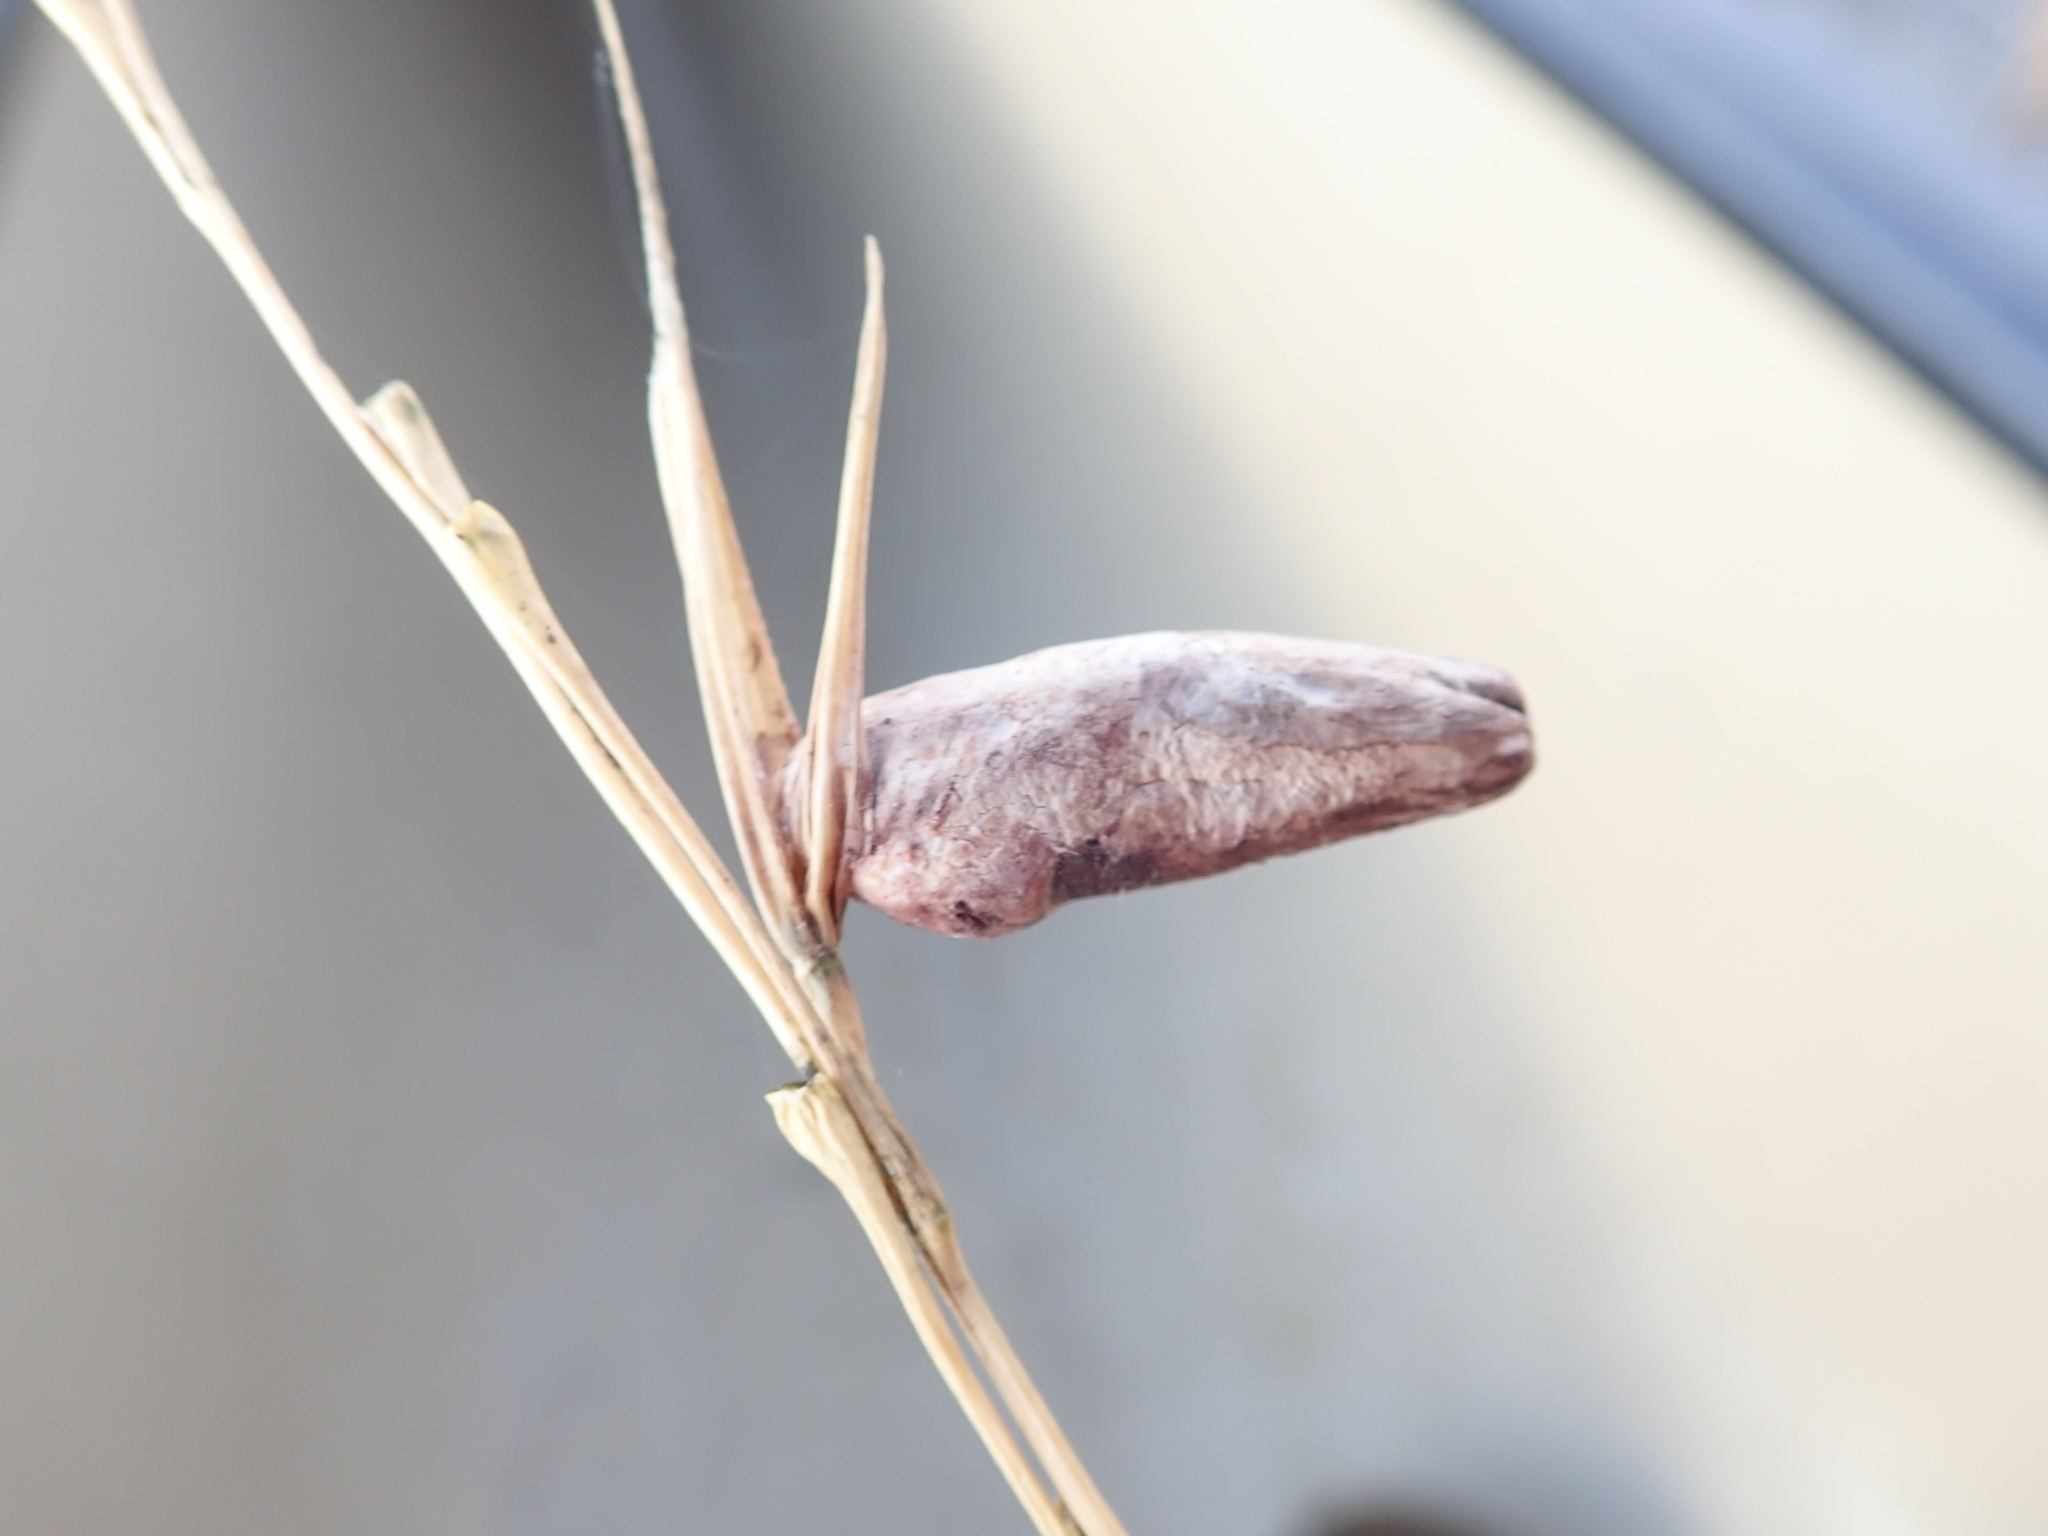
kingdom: Fungi
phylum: Ascomycota
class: Sordariomycetes
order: Hypocreales
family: Clavicipitaceae
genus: Claviceps
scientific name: Claviceps zizaniae
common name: Wildrice ergot
